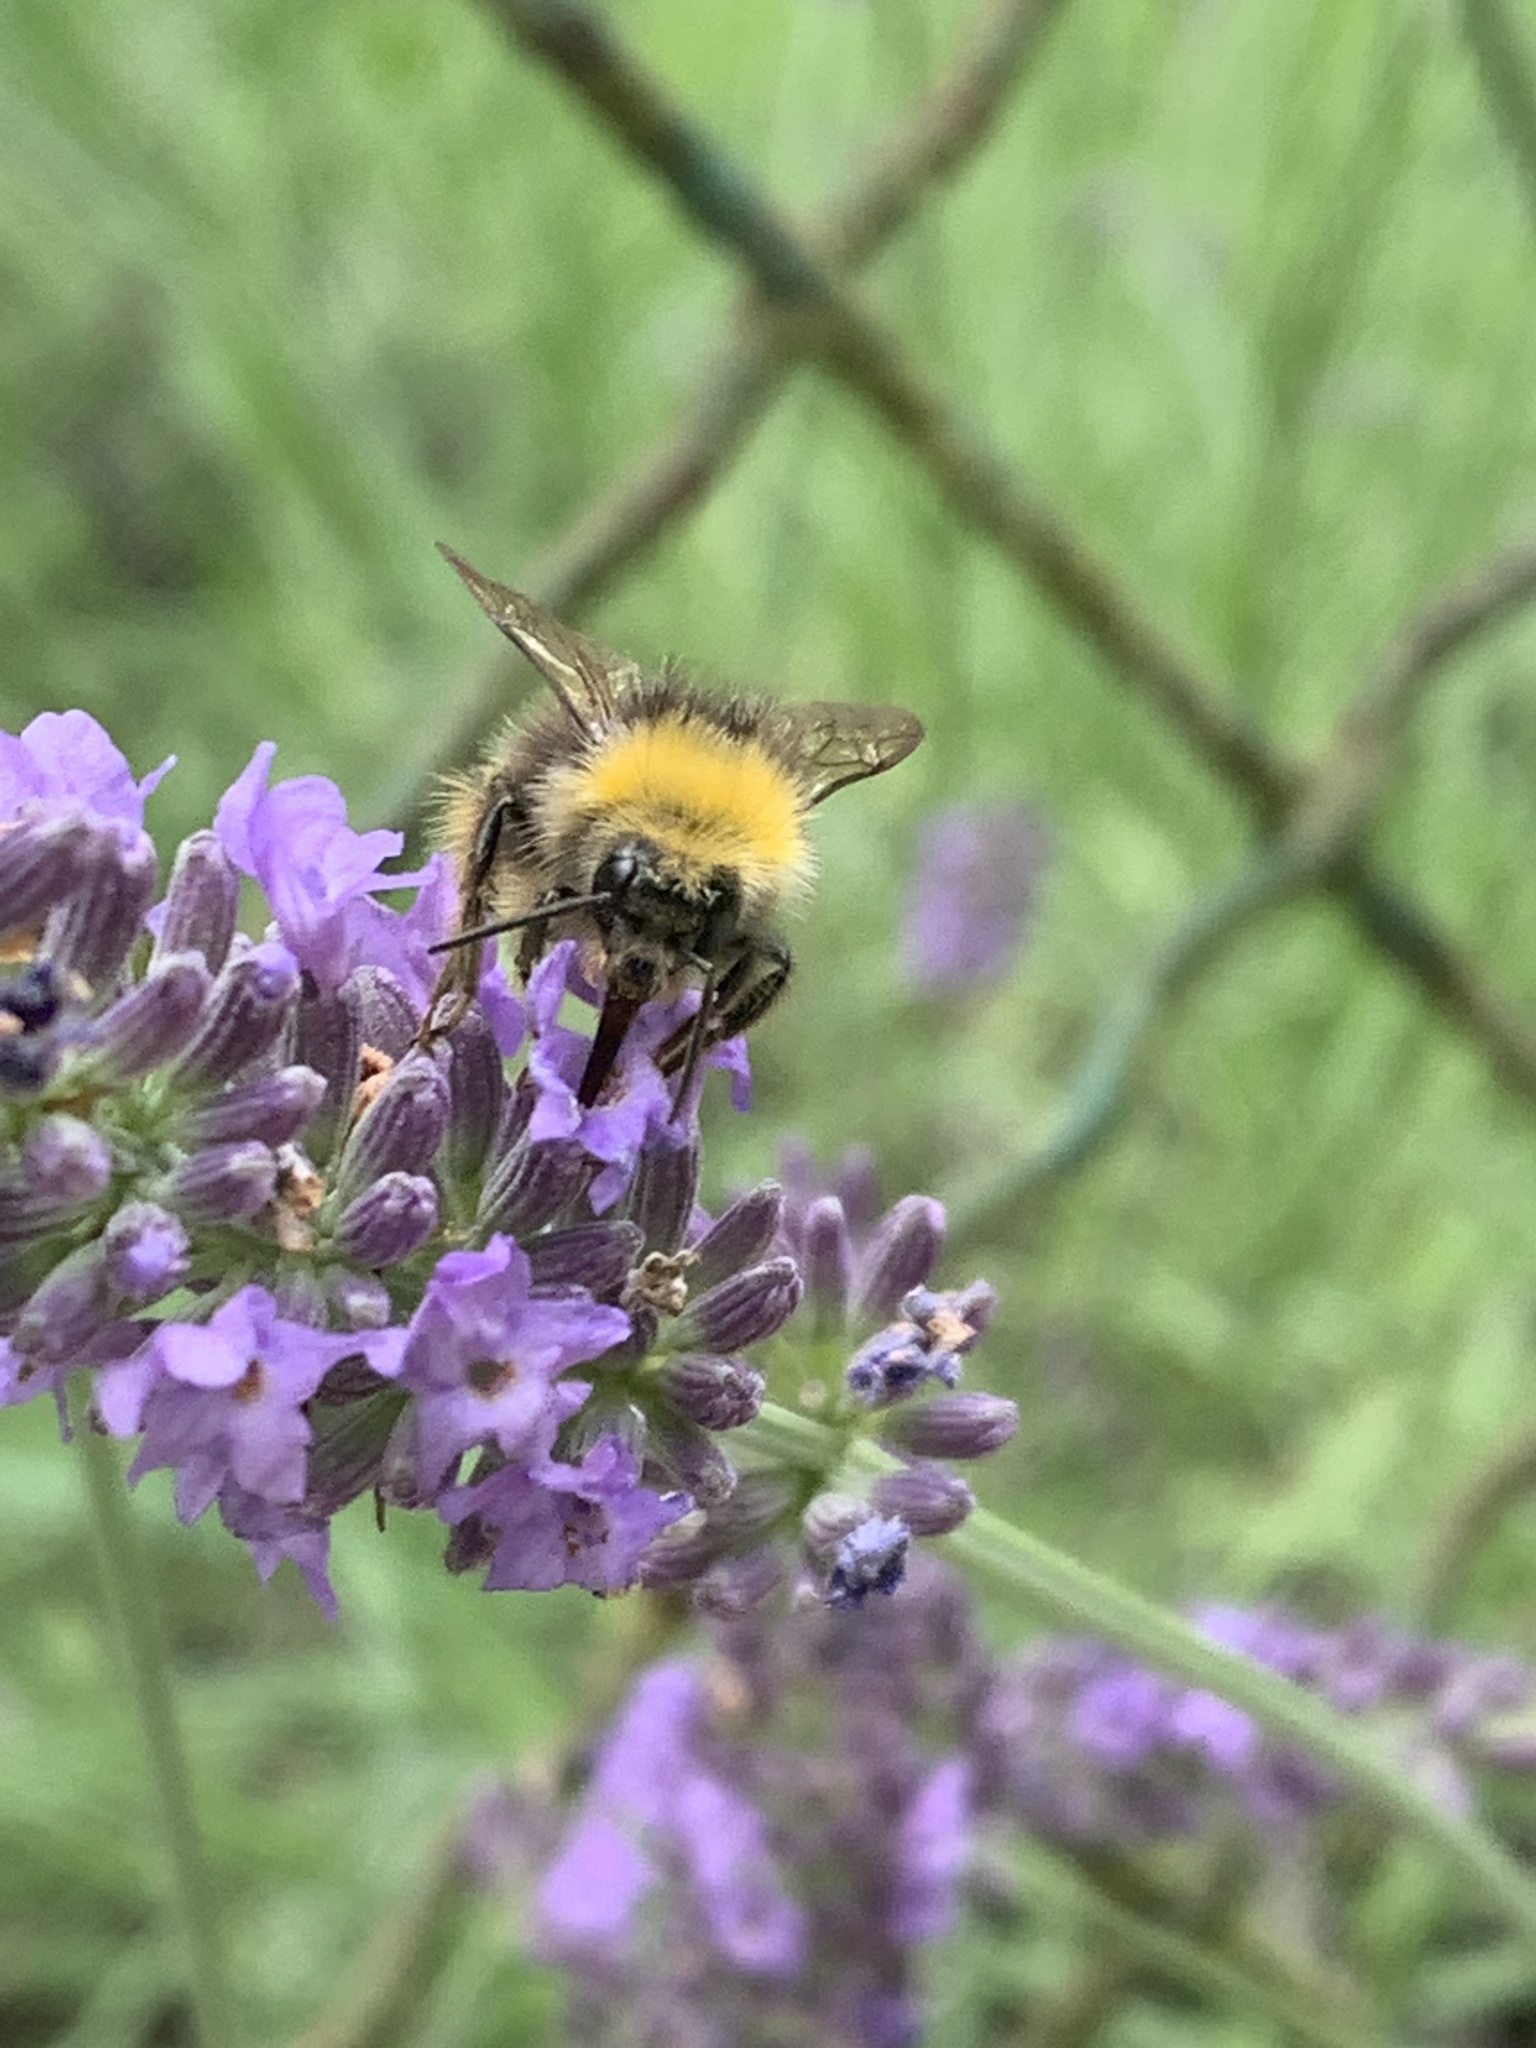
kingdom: Animalia
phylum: Arthropoda
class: Insecta
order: Hymenoptera
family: Apidae
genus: Bombus
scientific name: Bombus pratorum
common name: Early humble-bee
